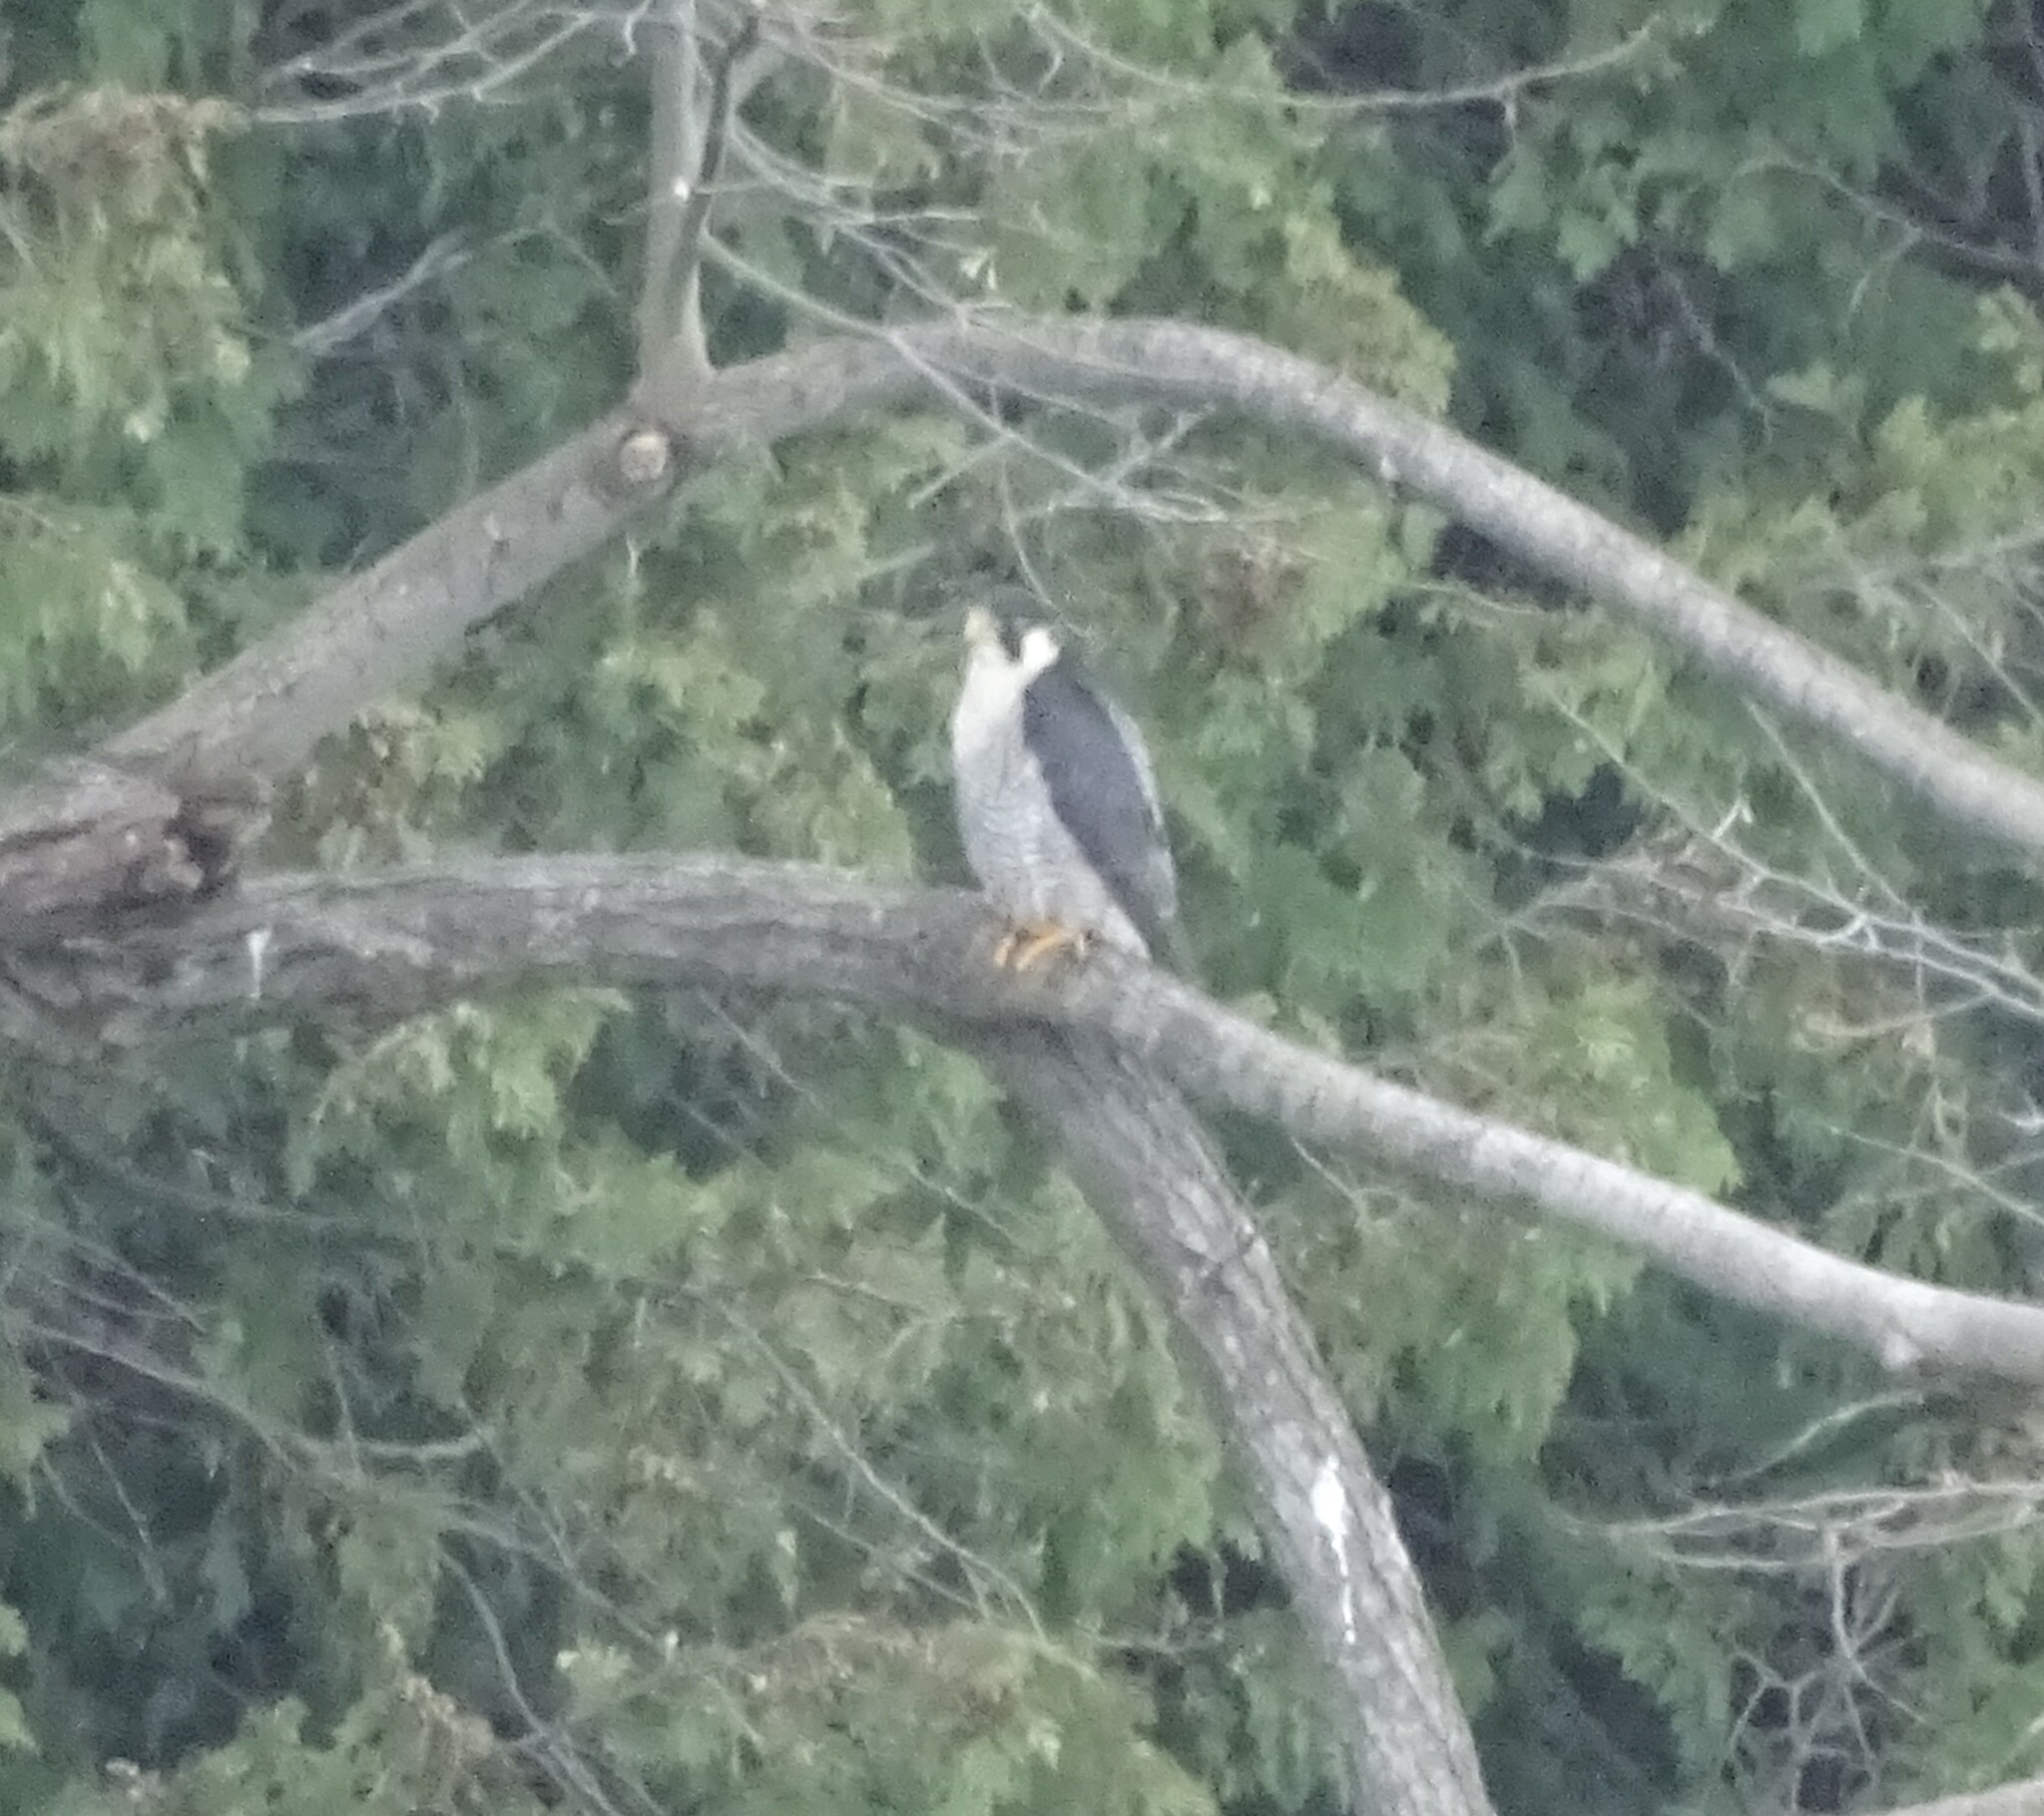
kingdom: Animalia
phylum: Chordata
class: Aves
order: Falconiformes
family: Falconidae
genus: Falco
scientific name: Falco peregrinus
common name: Peregrine falcon
